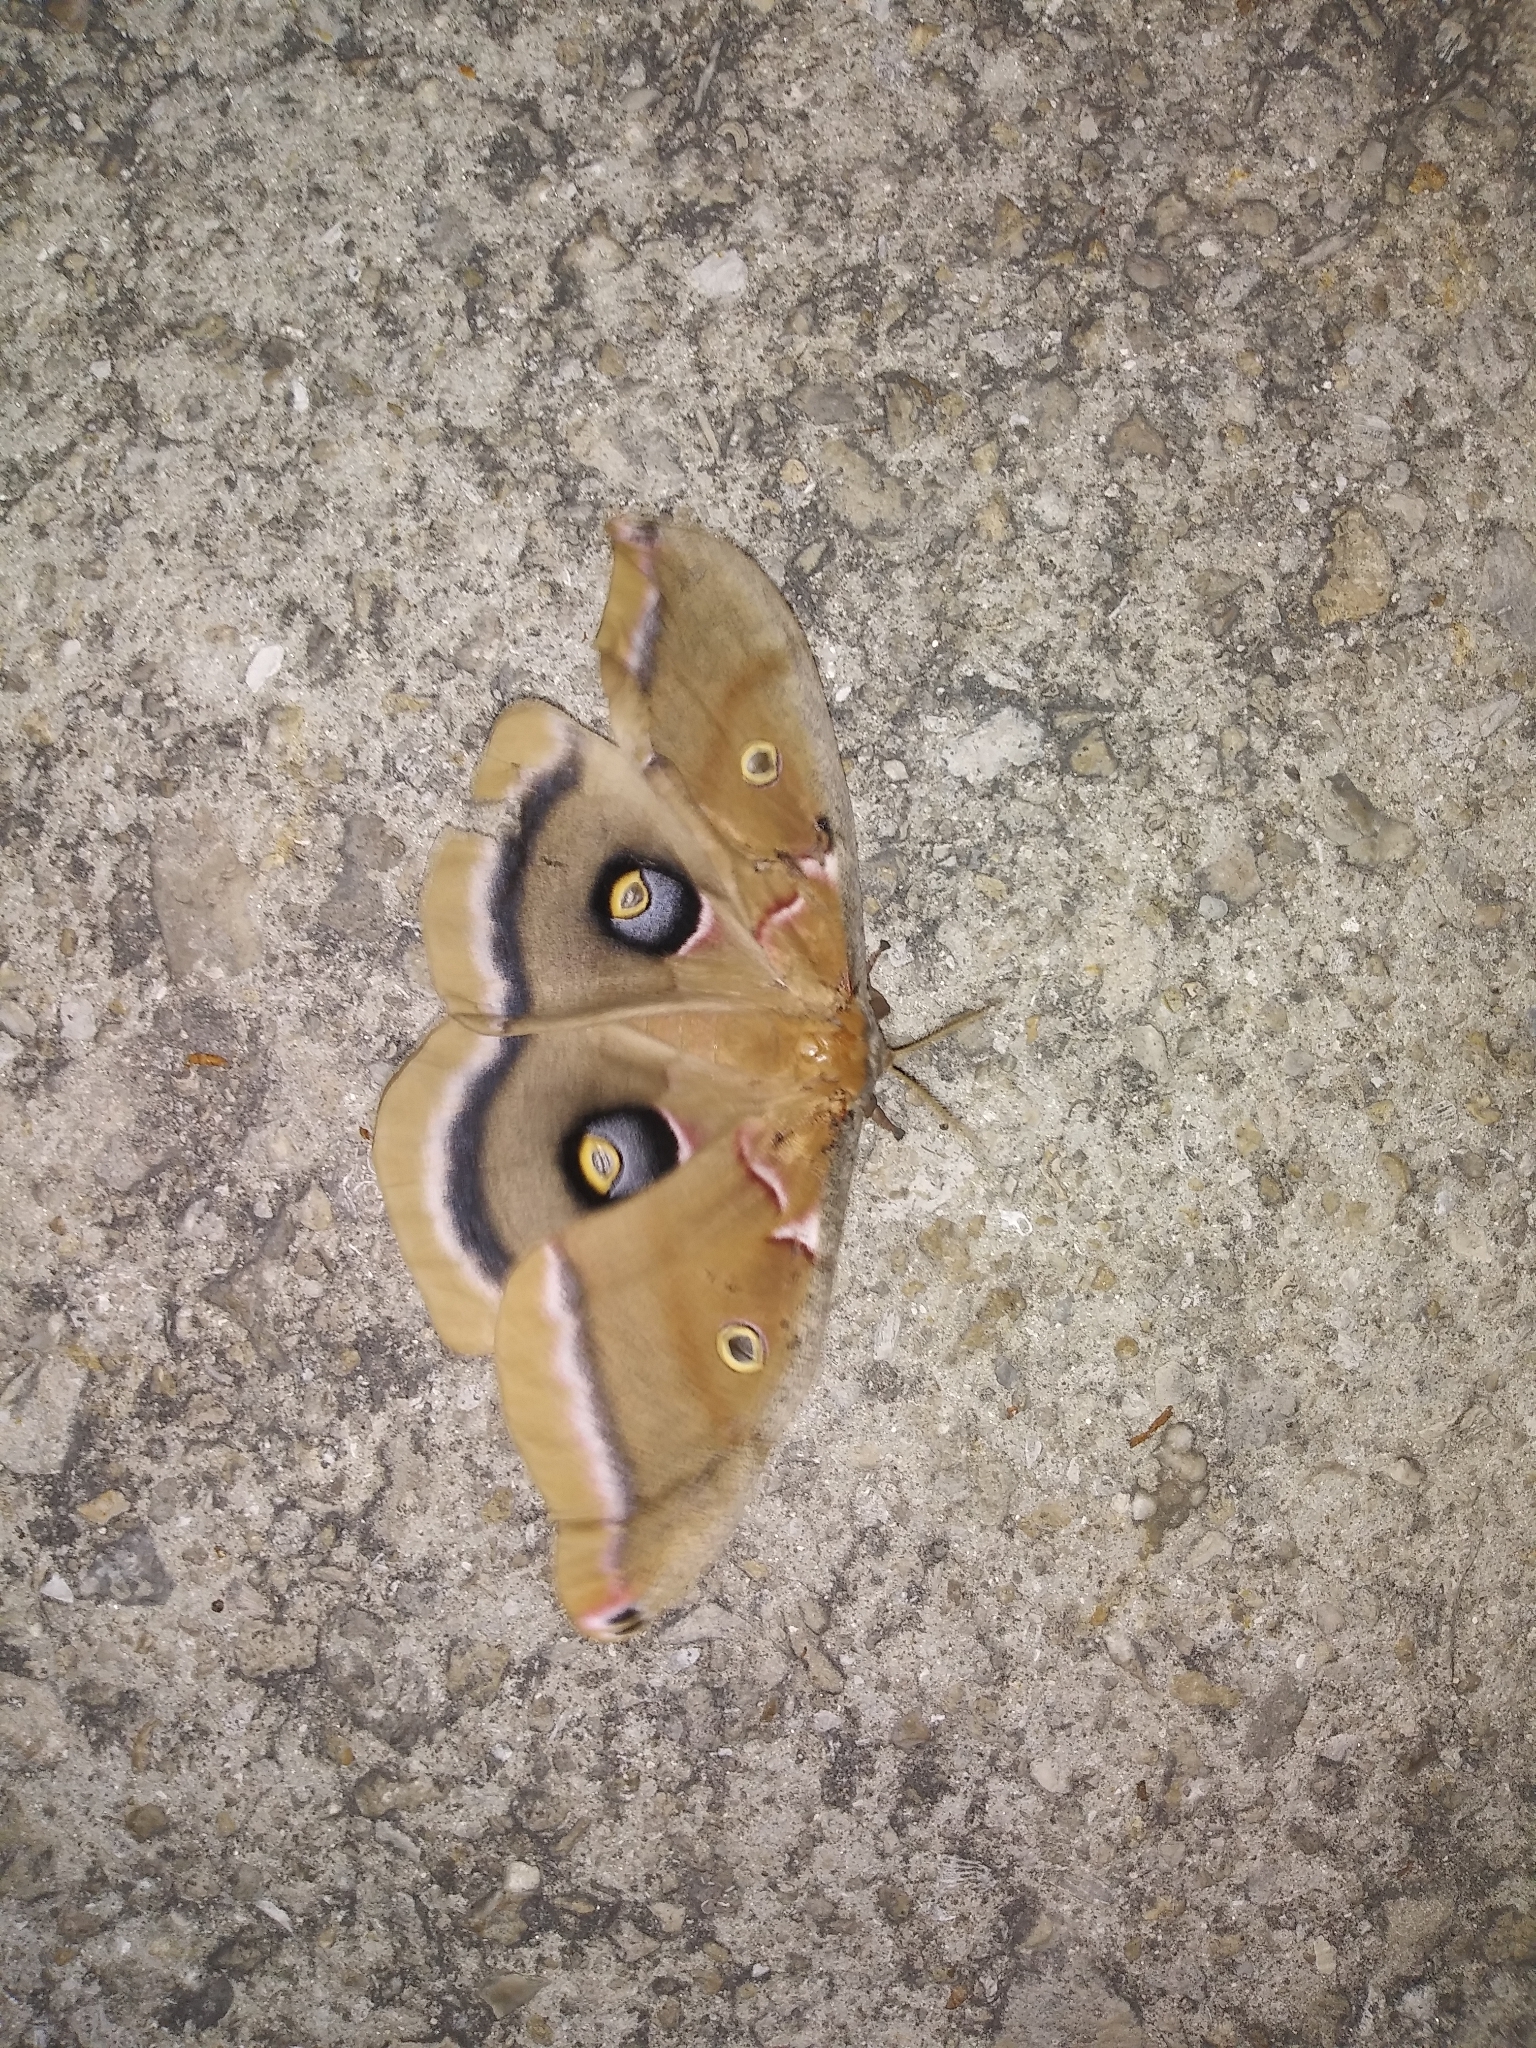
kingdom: Animalia
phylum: Arthropoda
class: Insecta
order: Lepidoptera
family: Saturniidae
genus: Antheraea
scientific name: Antheraea polyphemus
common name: Polyphemus moth
